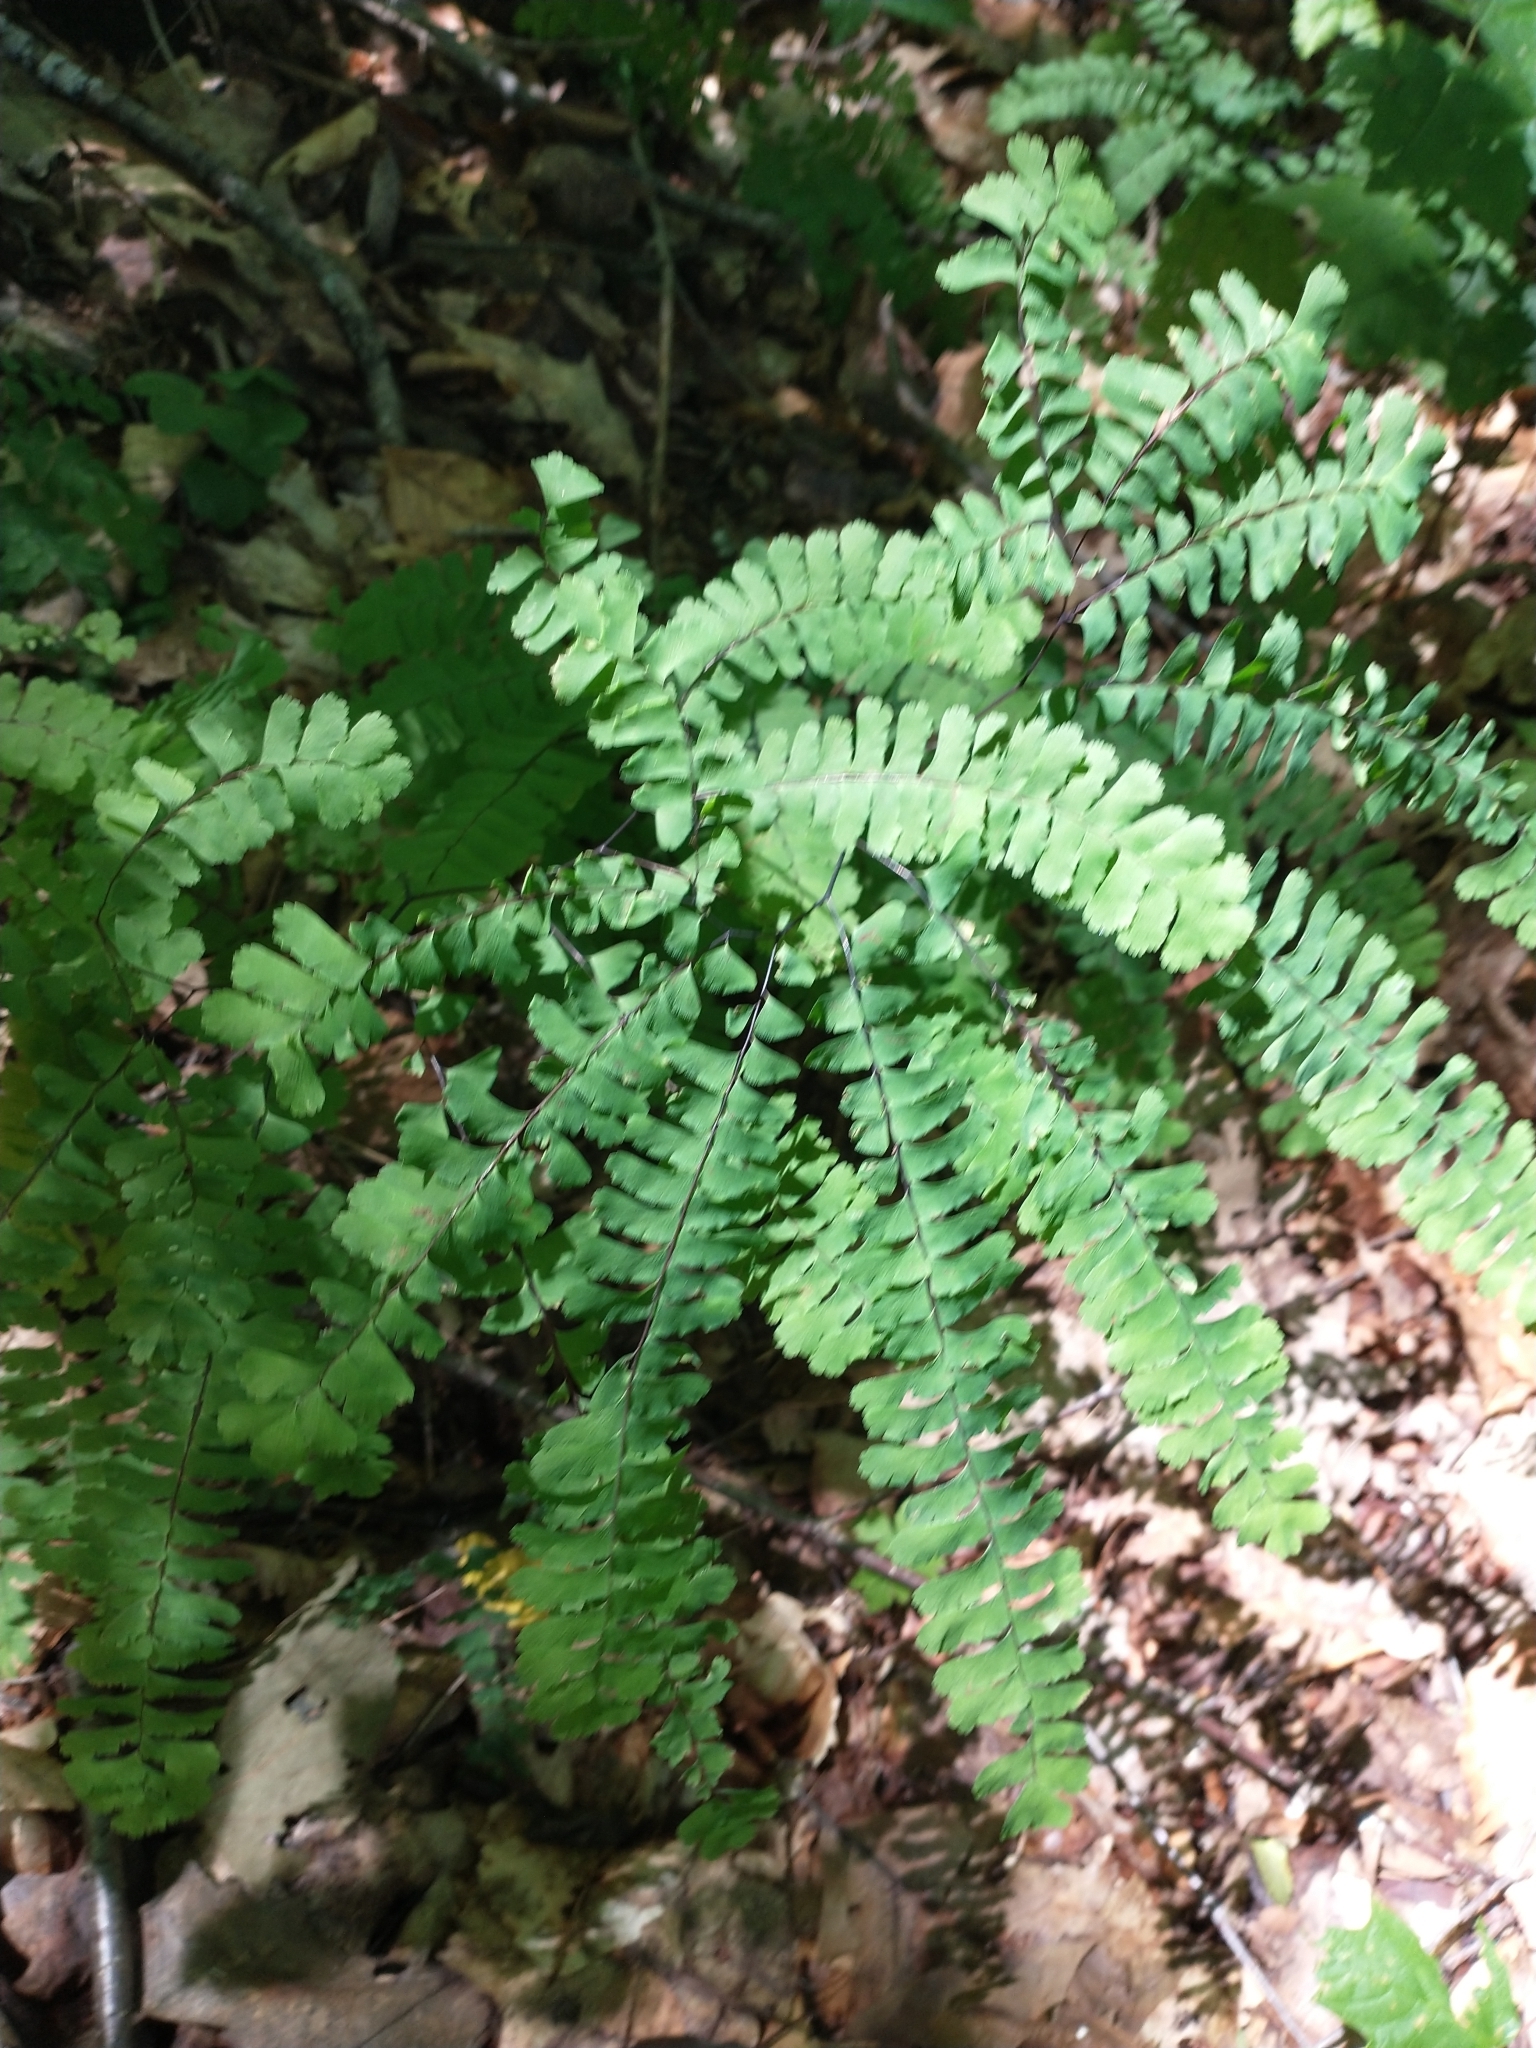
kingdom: Plantae
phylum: Tracheophyta
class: Polypodiopsida
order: Polypodiales
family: Pteridaceae
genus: Adiantum
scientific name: Adiantum pedatum
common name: Five-finger fern
